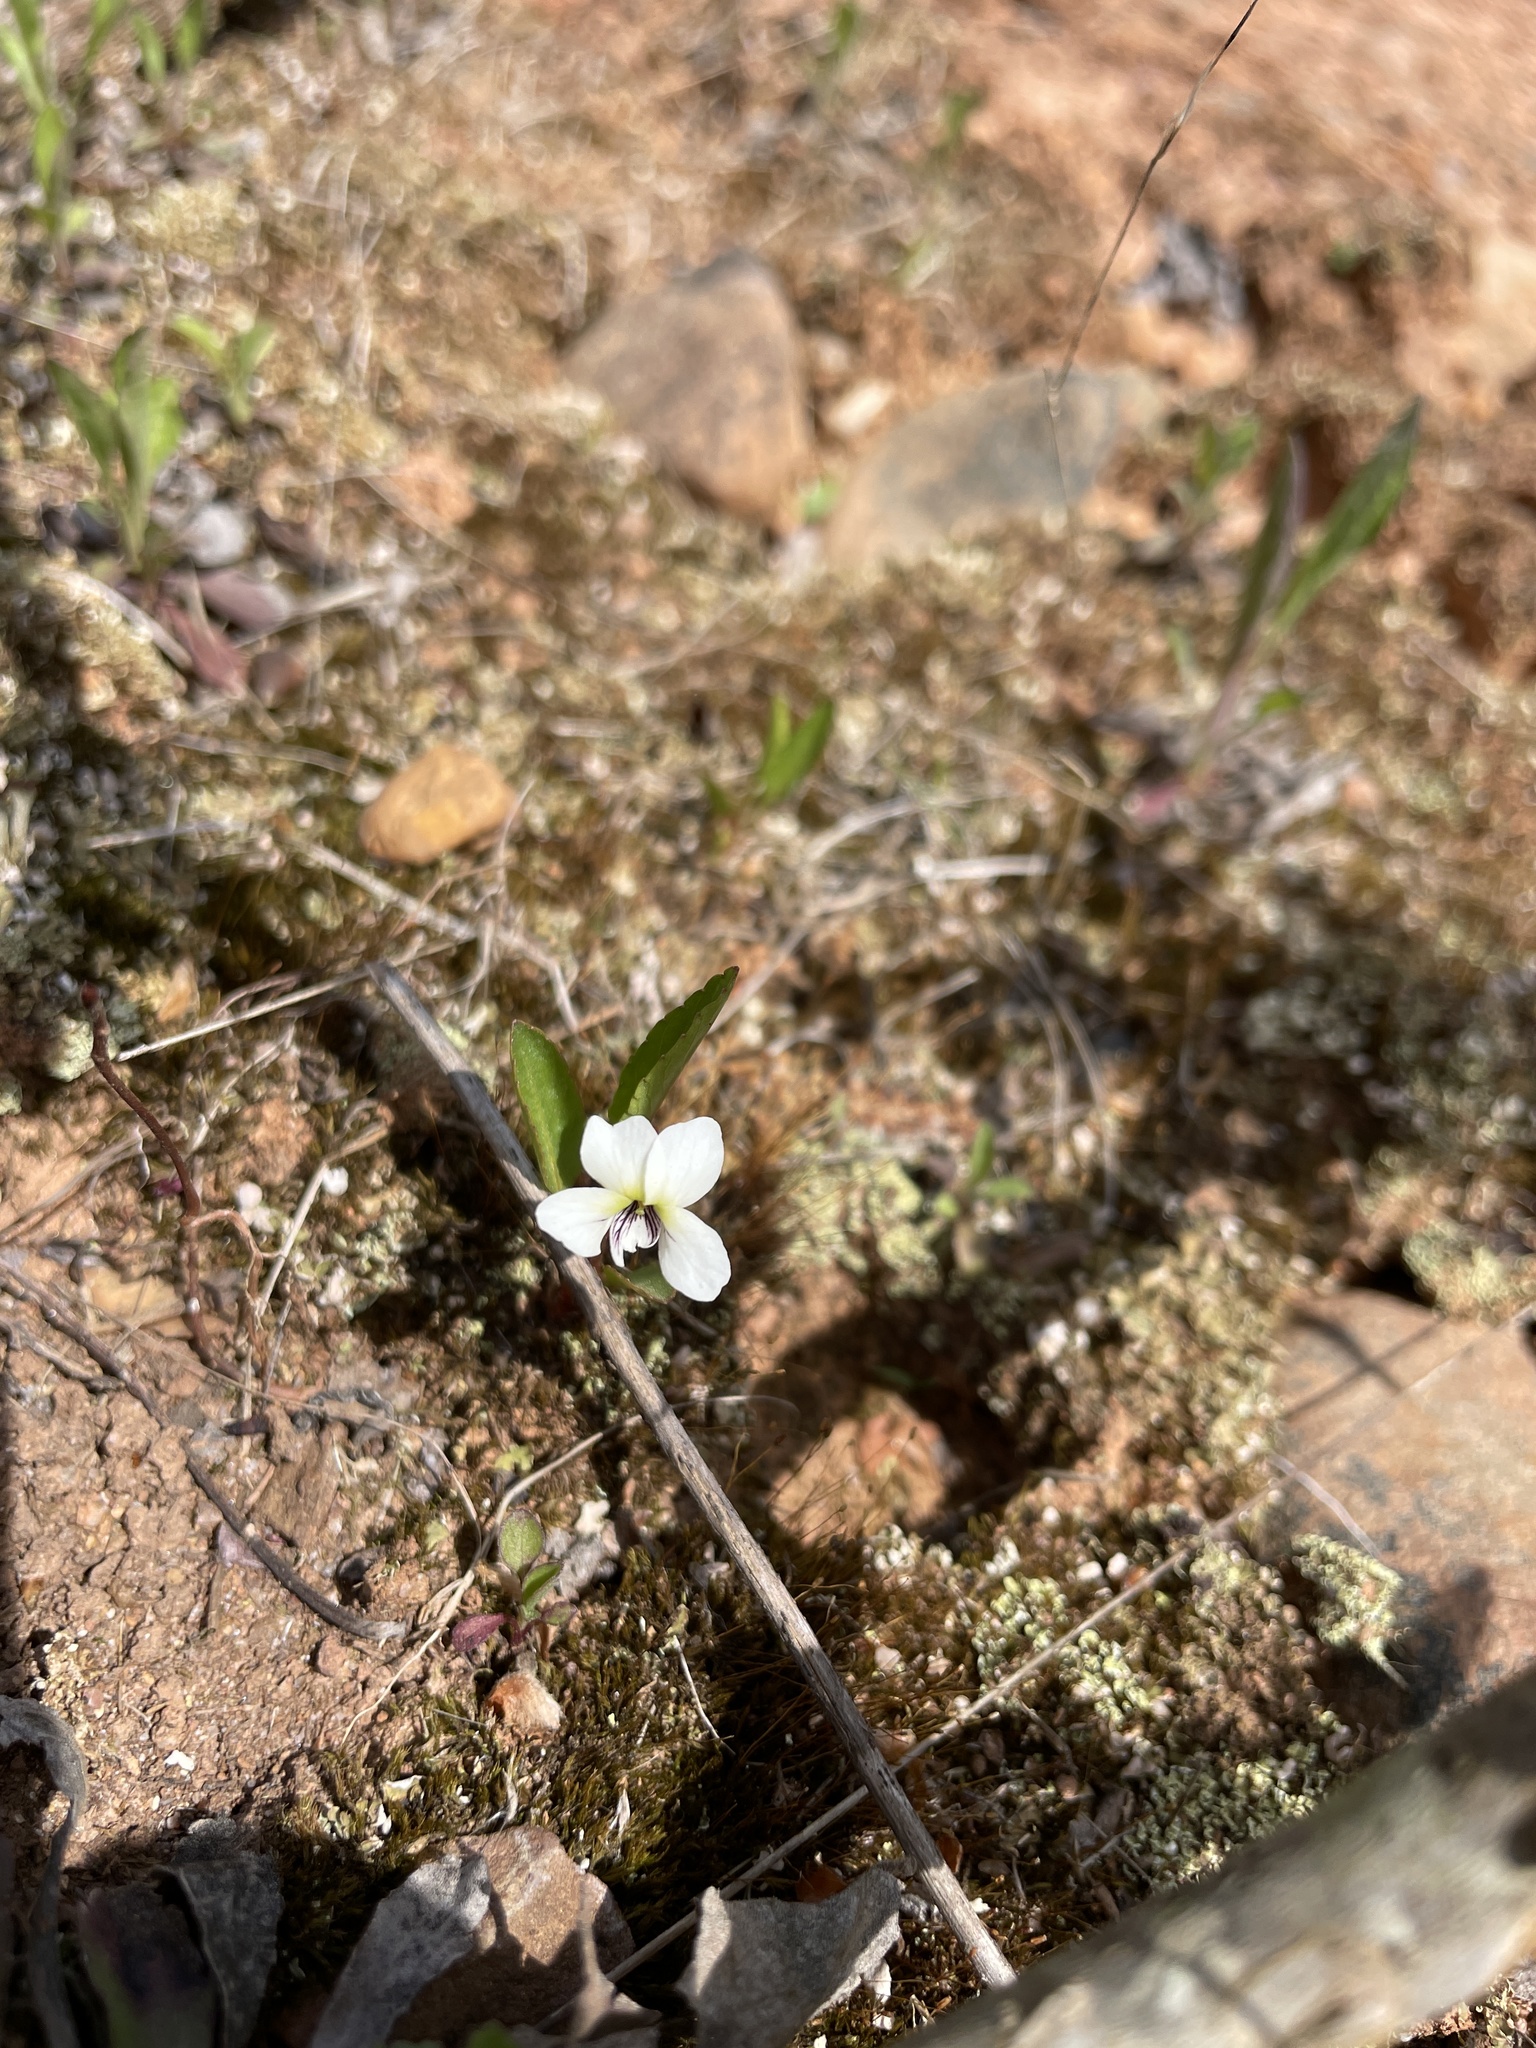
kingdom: Plantae
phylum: Tracheophyta
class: Magnoliopsida
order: Malpighiales
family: Violaceae
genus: Viola
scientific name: Viola lanceolata
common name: Bog white violet
